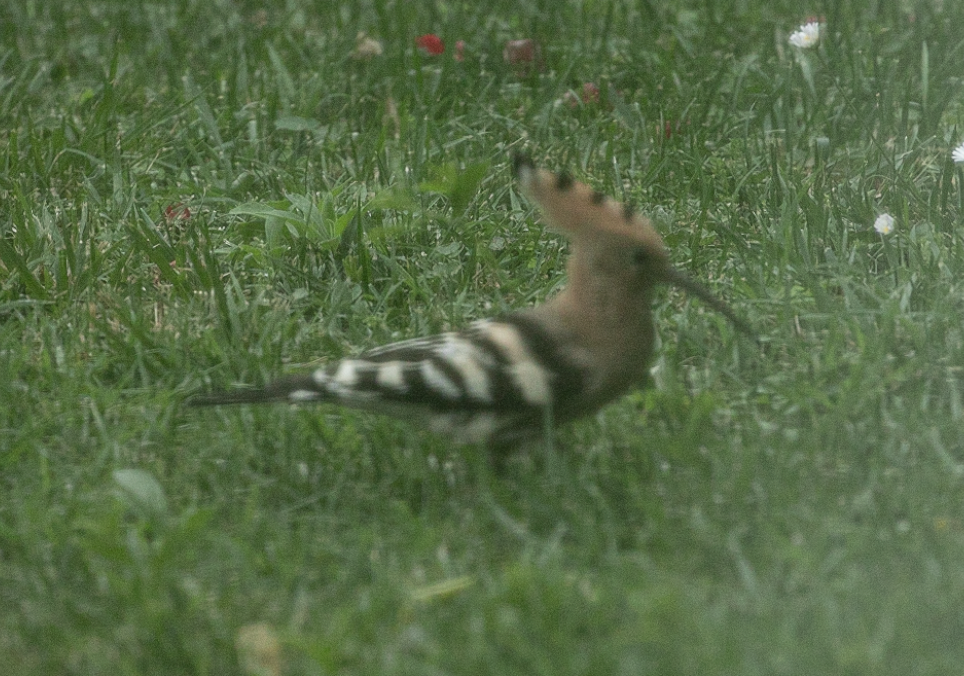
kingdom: Animalia
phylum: Chordata
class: Aves
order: Bucerotiformes
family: Upupidae
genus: Upupa
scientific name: Upupa epops
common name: Eurasian hoopoe
